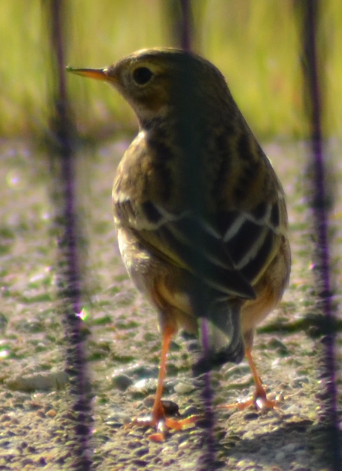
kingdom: Animalia
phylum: Chordata
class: Aves
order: Passeriformes
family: Motacillidae
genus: Anthus
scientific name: Anthus pratensis
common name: Meadow pipit
